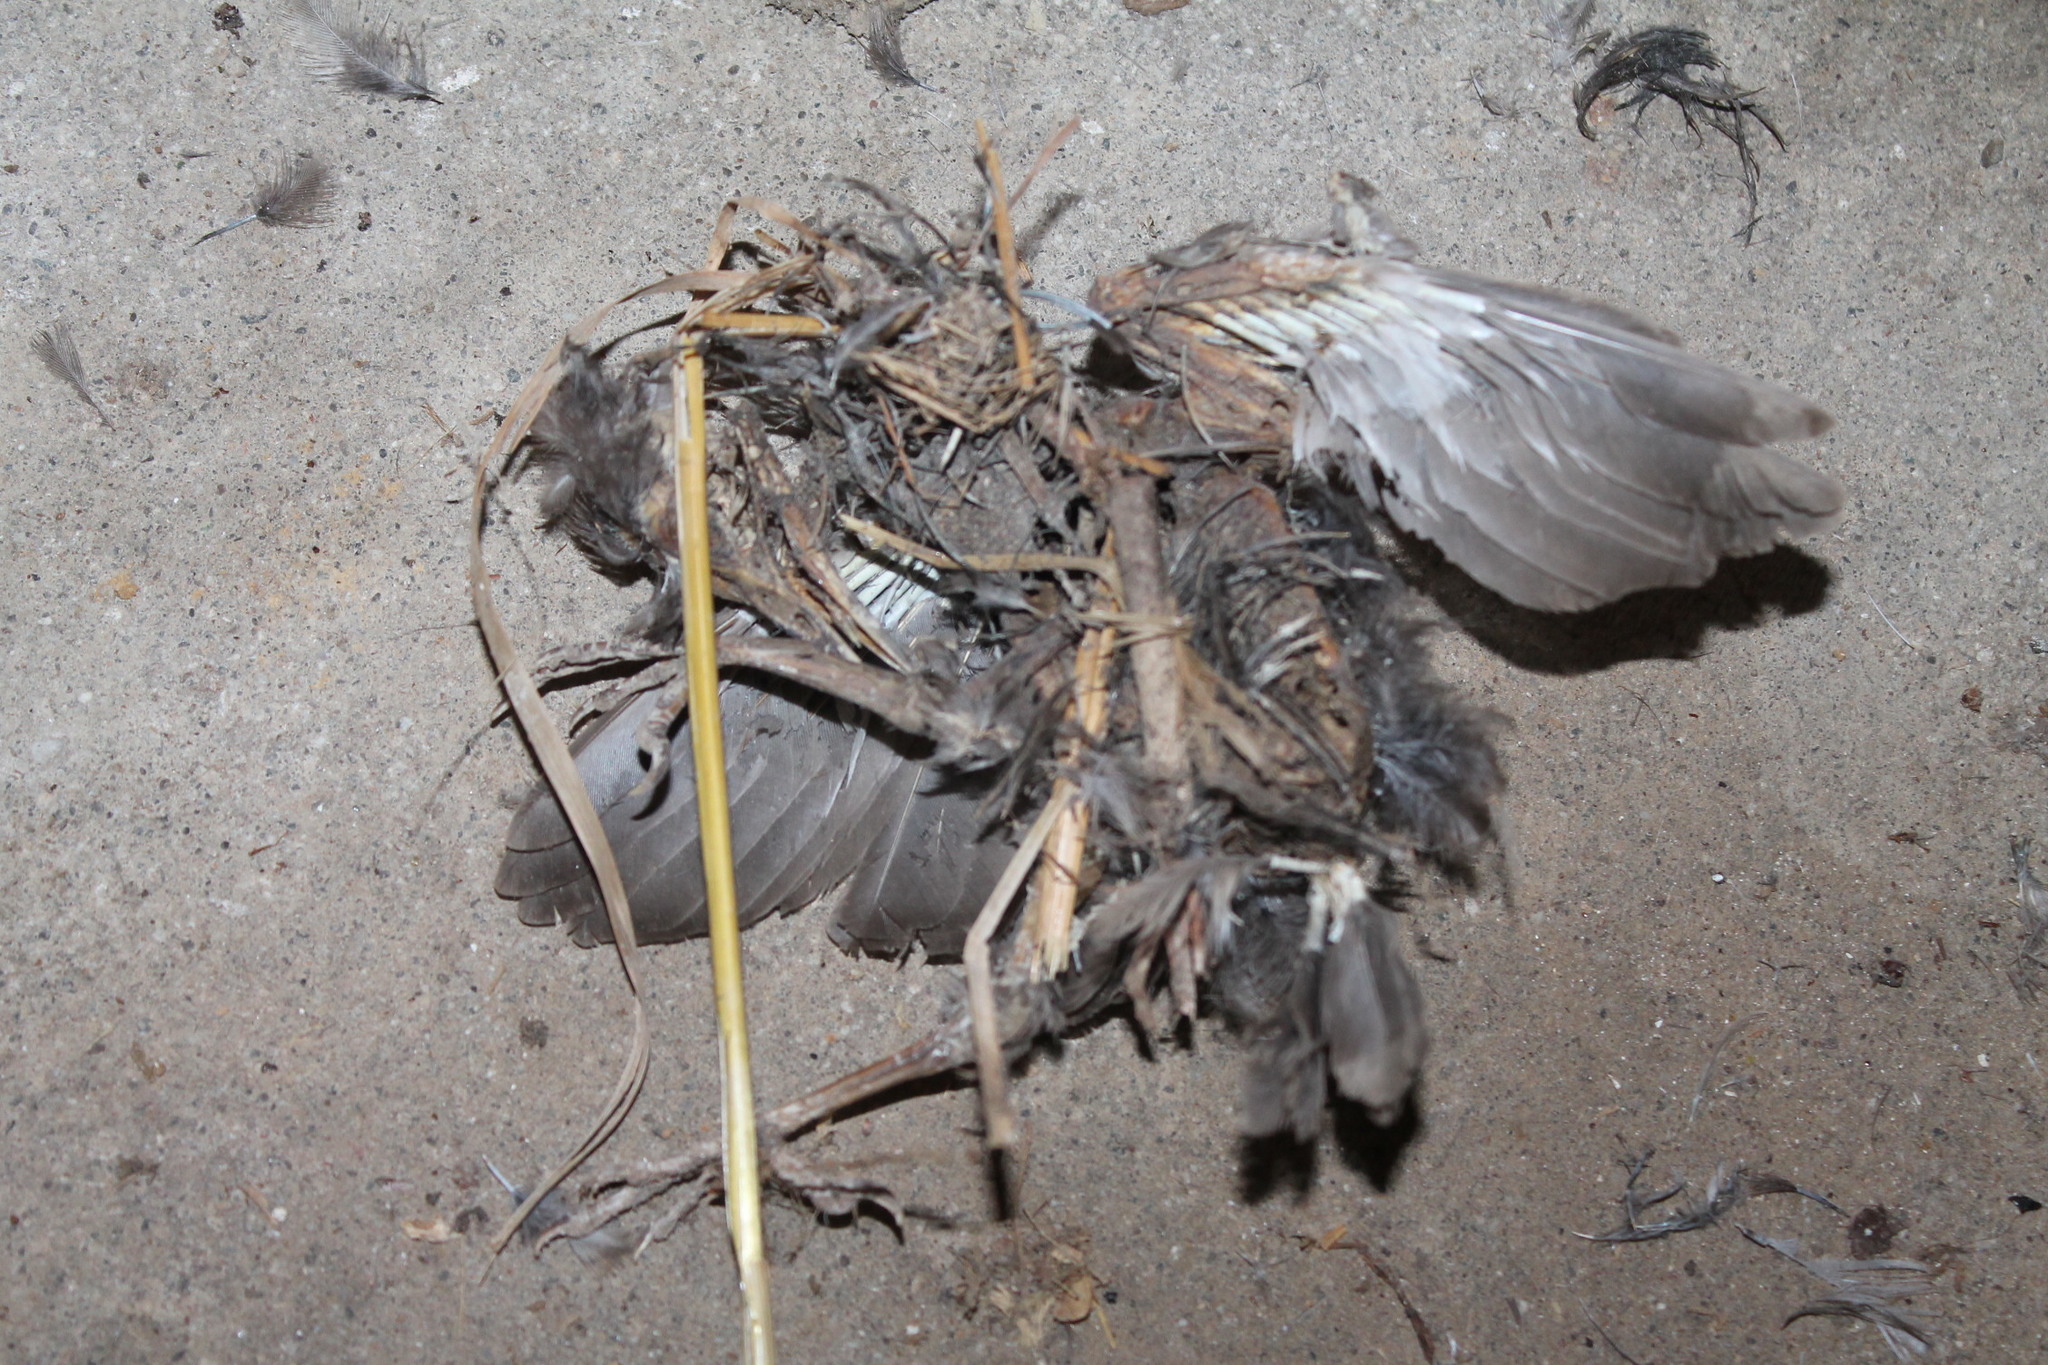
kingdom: Animalia
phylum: Chordata
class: Aves
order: Passeriformes
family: Sturnidae
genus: Sturnus
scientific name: Sturnus vulgaris
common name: Common starling
